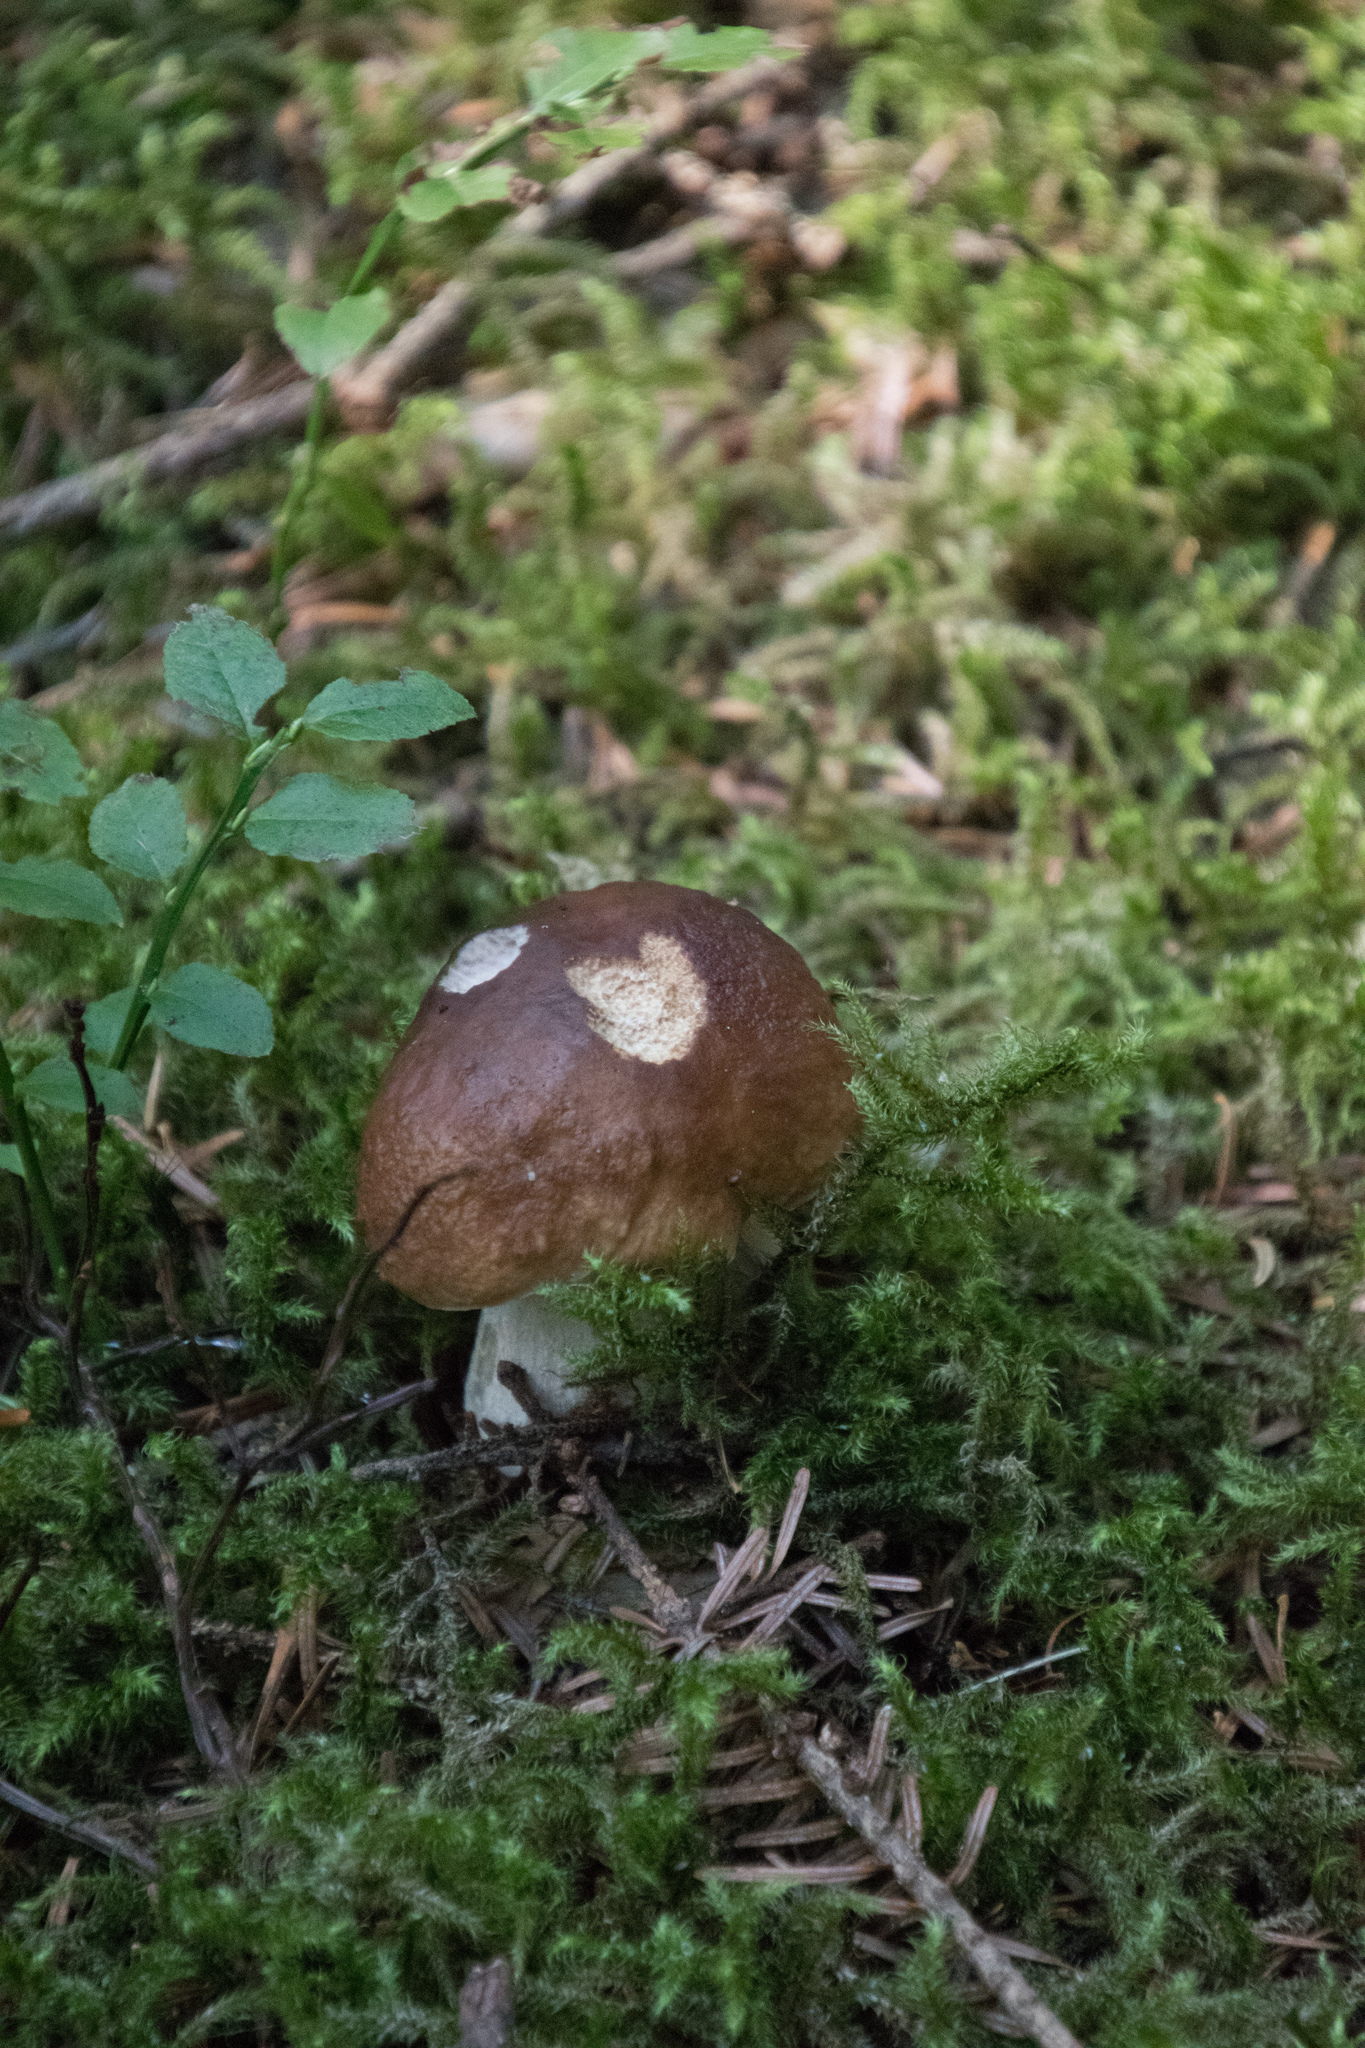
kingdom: Fungi
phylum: Basidiomycota
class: Agaricomycetes
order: Boletales
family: Boletaceae
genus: Boletus
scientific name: Boletus edulis
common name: Cep
